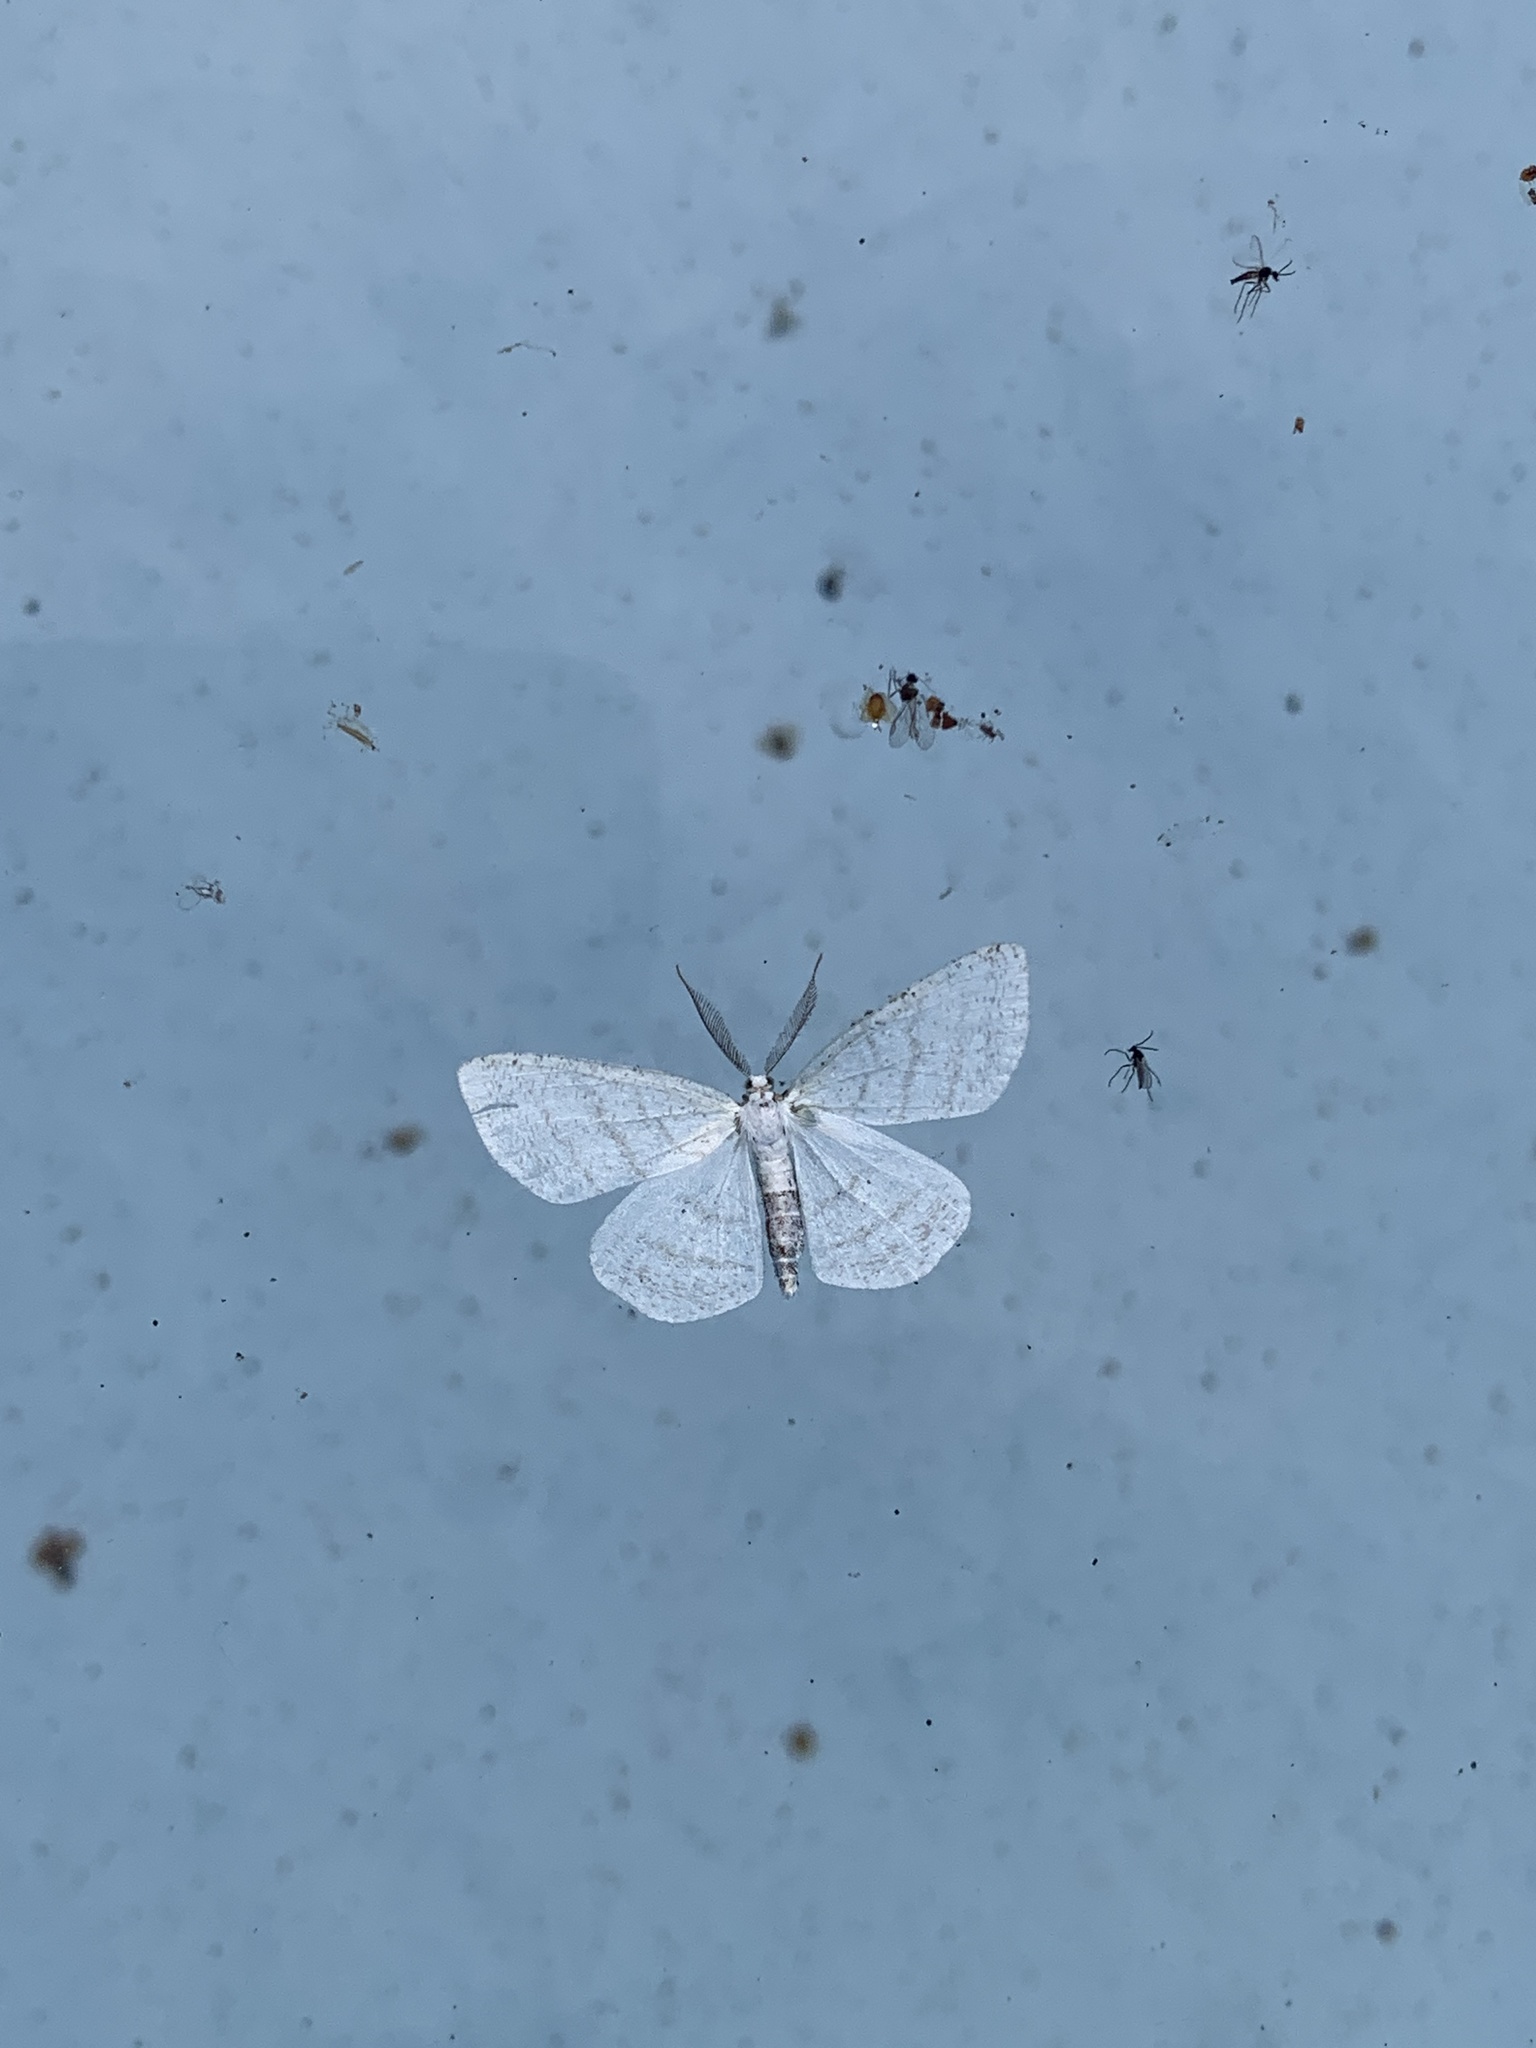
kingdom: Animalia
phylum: Arthropoda
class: Insecta
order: Lepidoptera
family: Geometridae
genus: Cabera
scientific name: Cabera pusaria
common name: Common white wave
